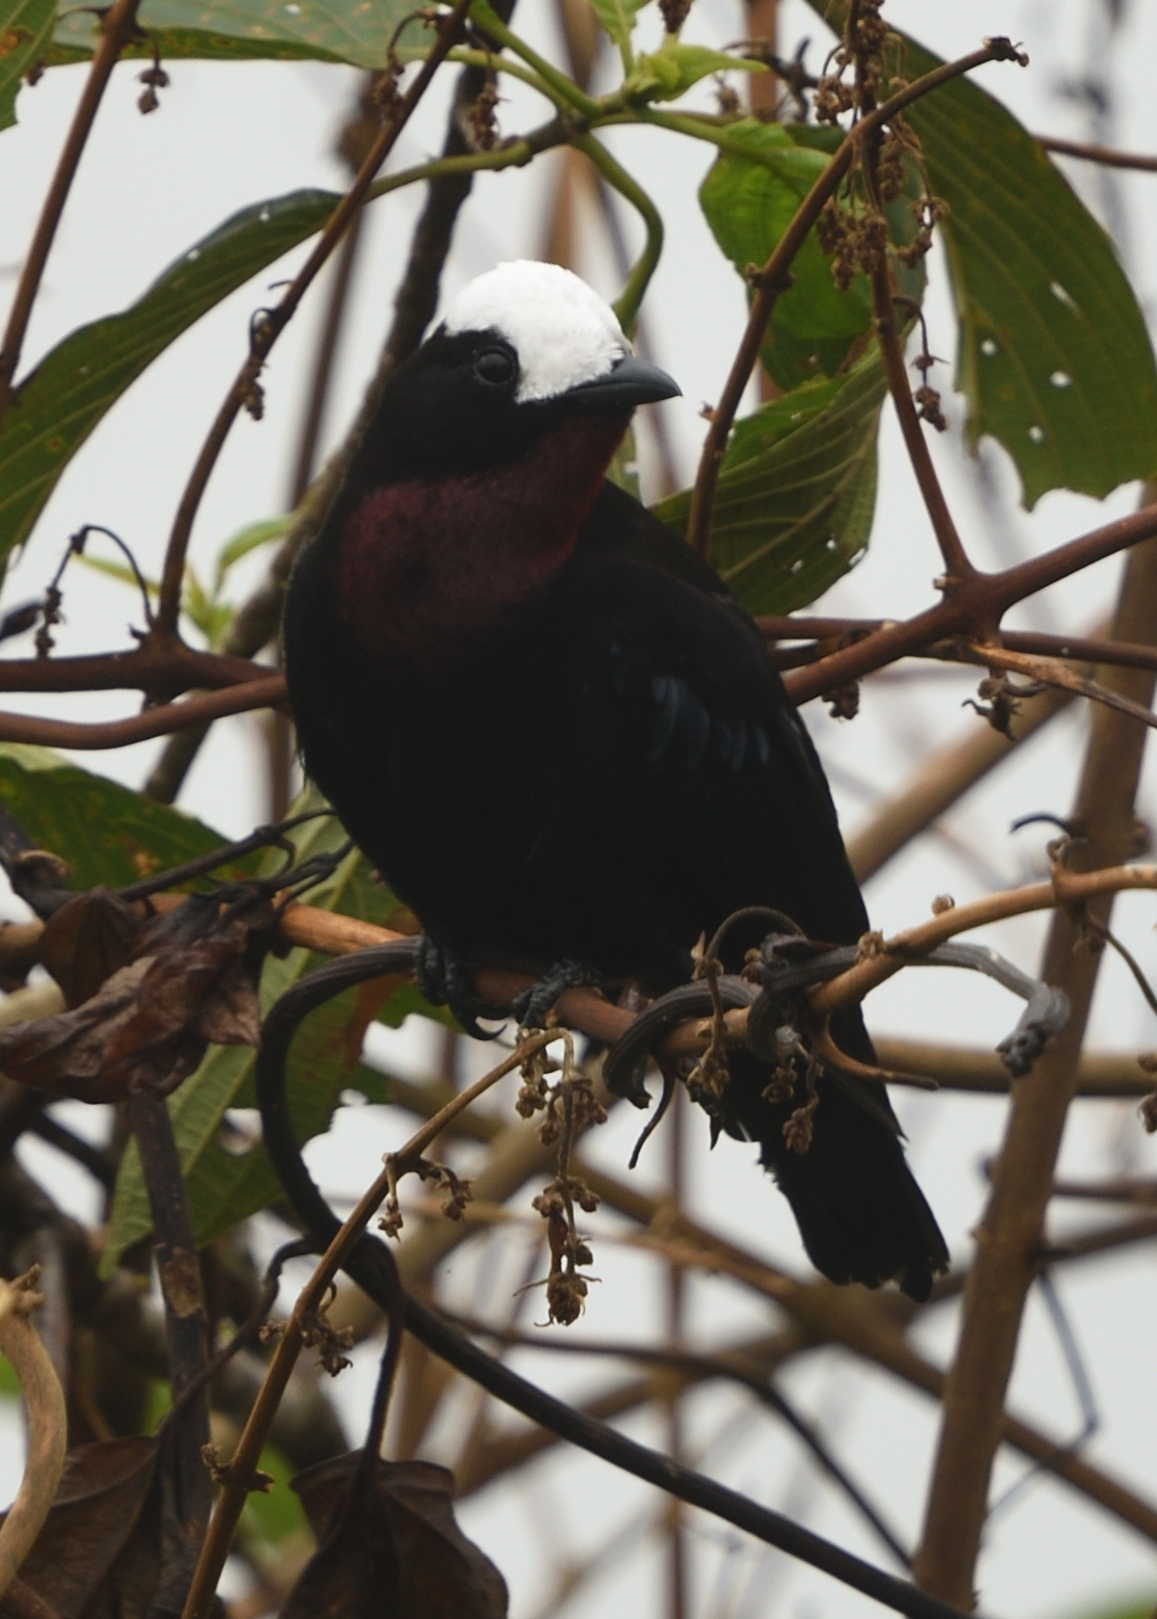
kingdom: Animalia
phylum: Chordata
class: Aves
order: Passeriformes
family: Thraupidae
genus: Sericossypha
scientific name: Sericossypha albocristata
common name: White-capped tanager
